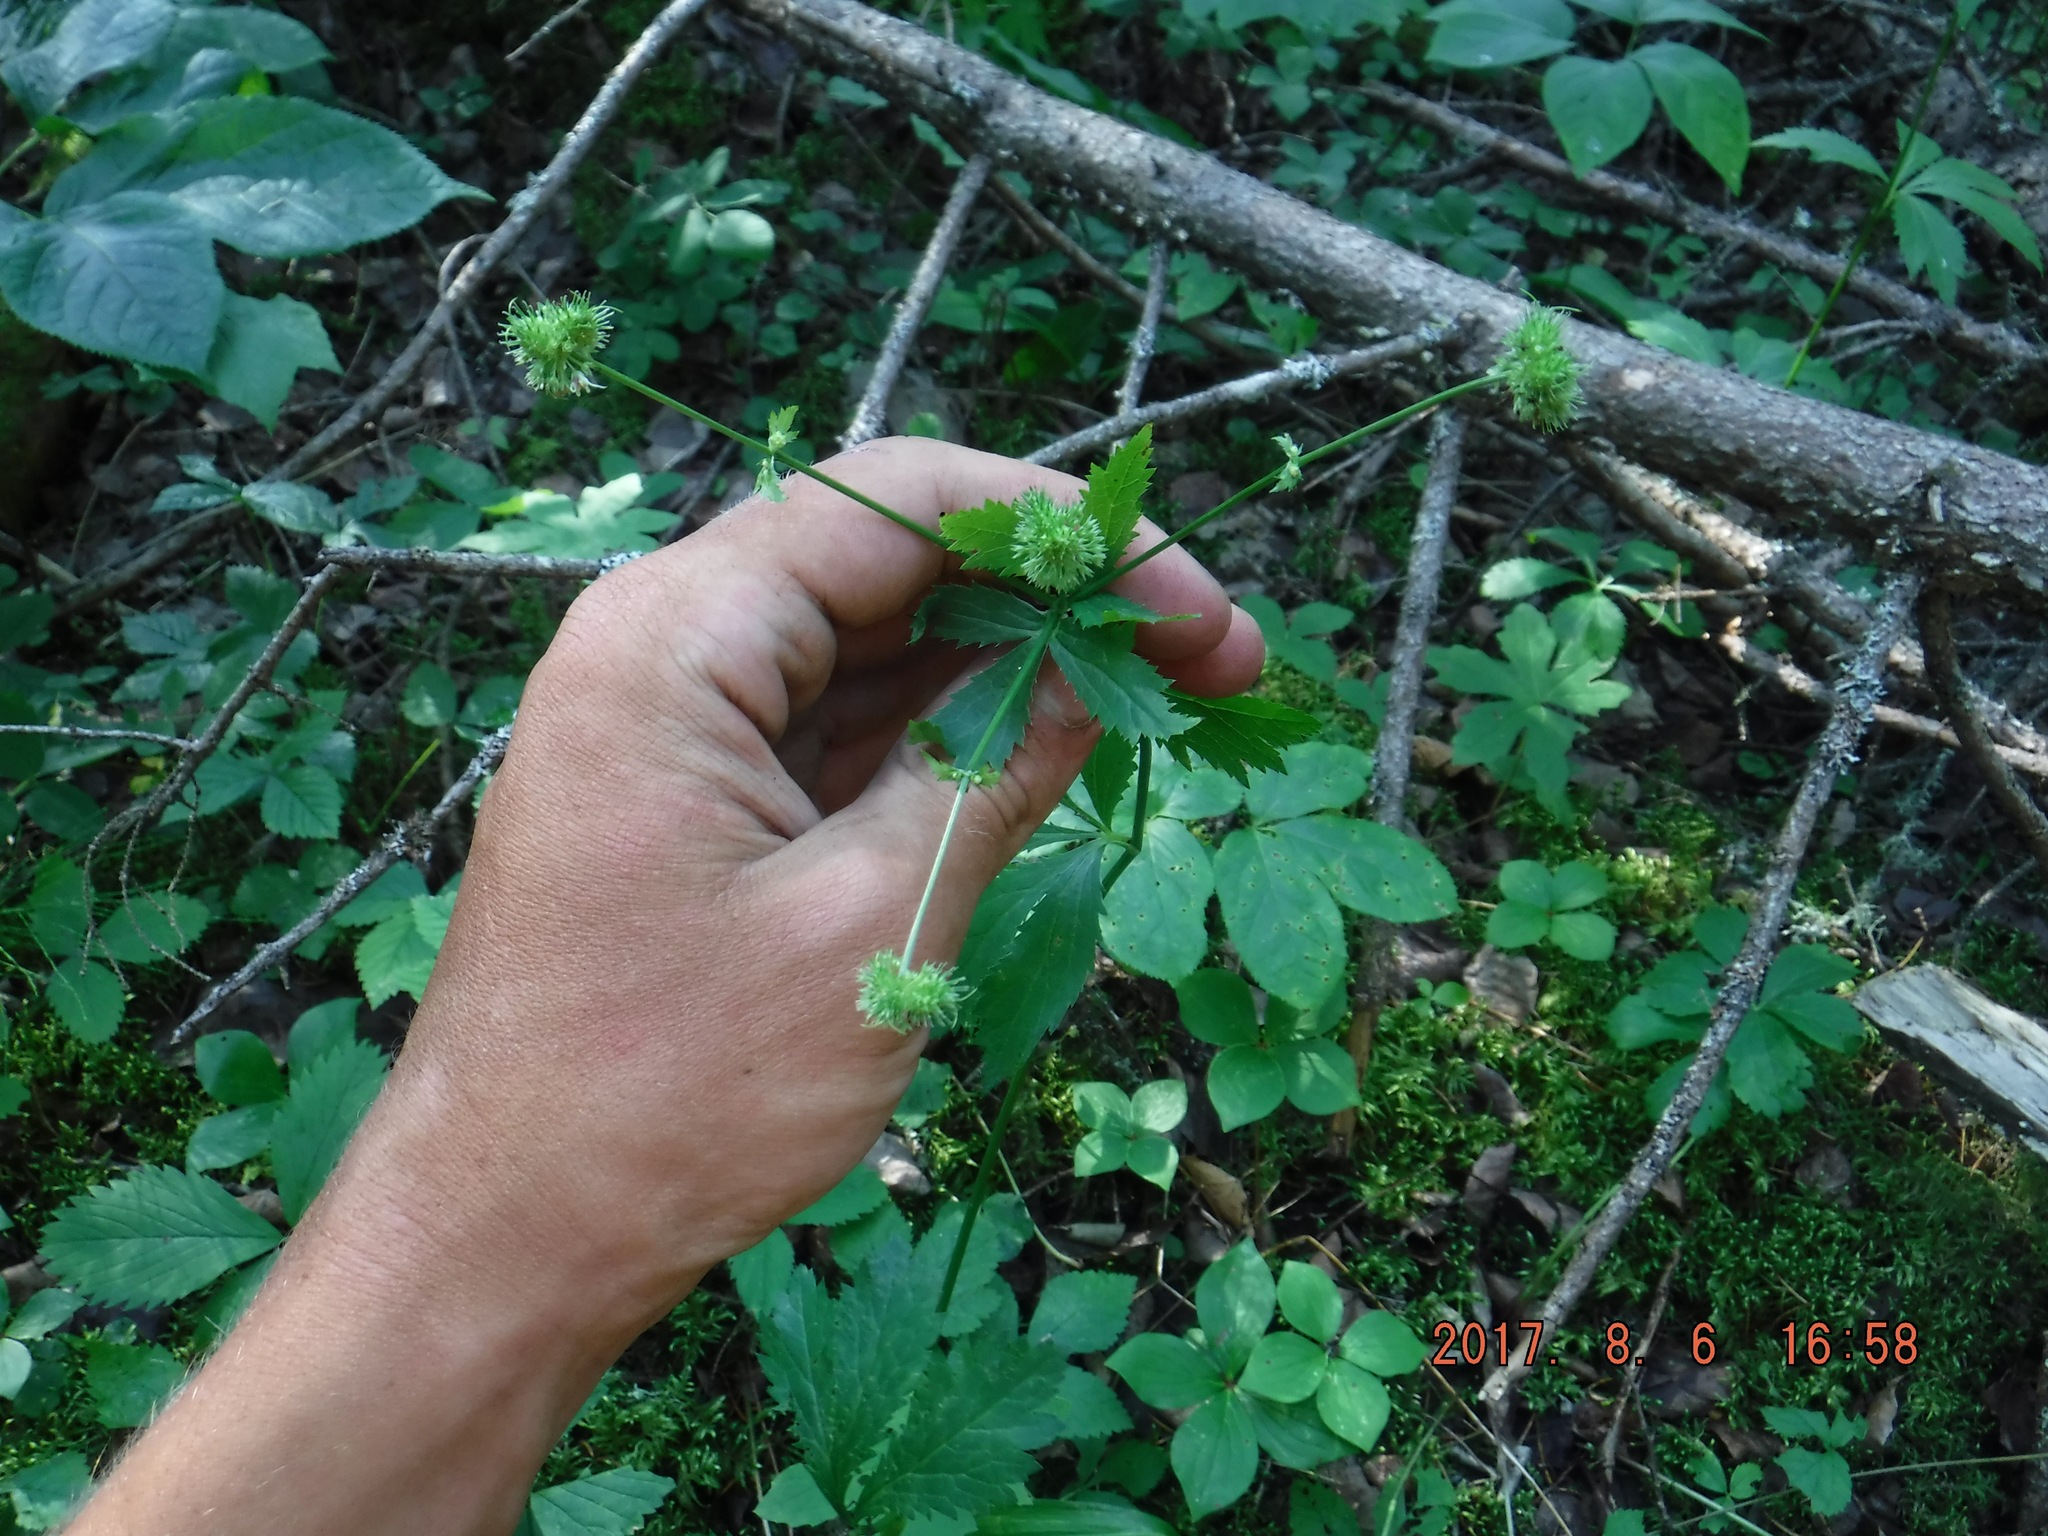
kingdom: Plantae
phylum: Tracheophyta
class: Magnoliopsida
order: Apiales
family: Apiaceae
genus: Sanicula
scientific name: Sanicula marilandica
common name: Black snakeroot
